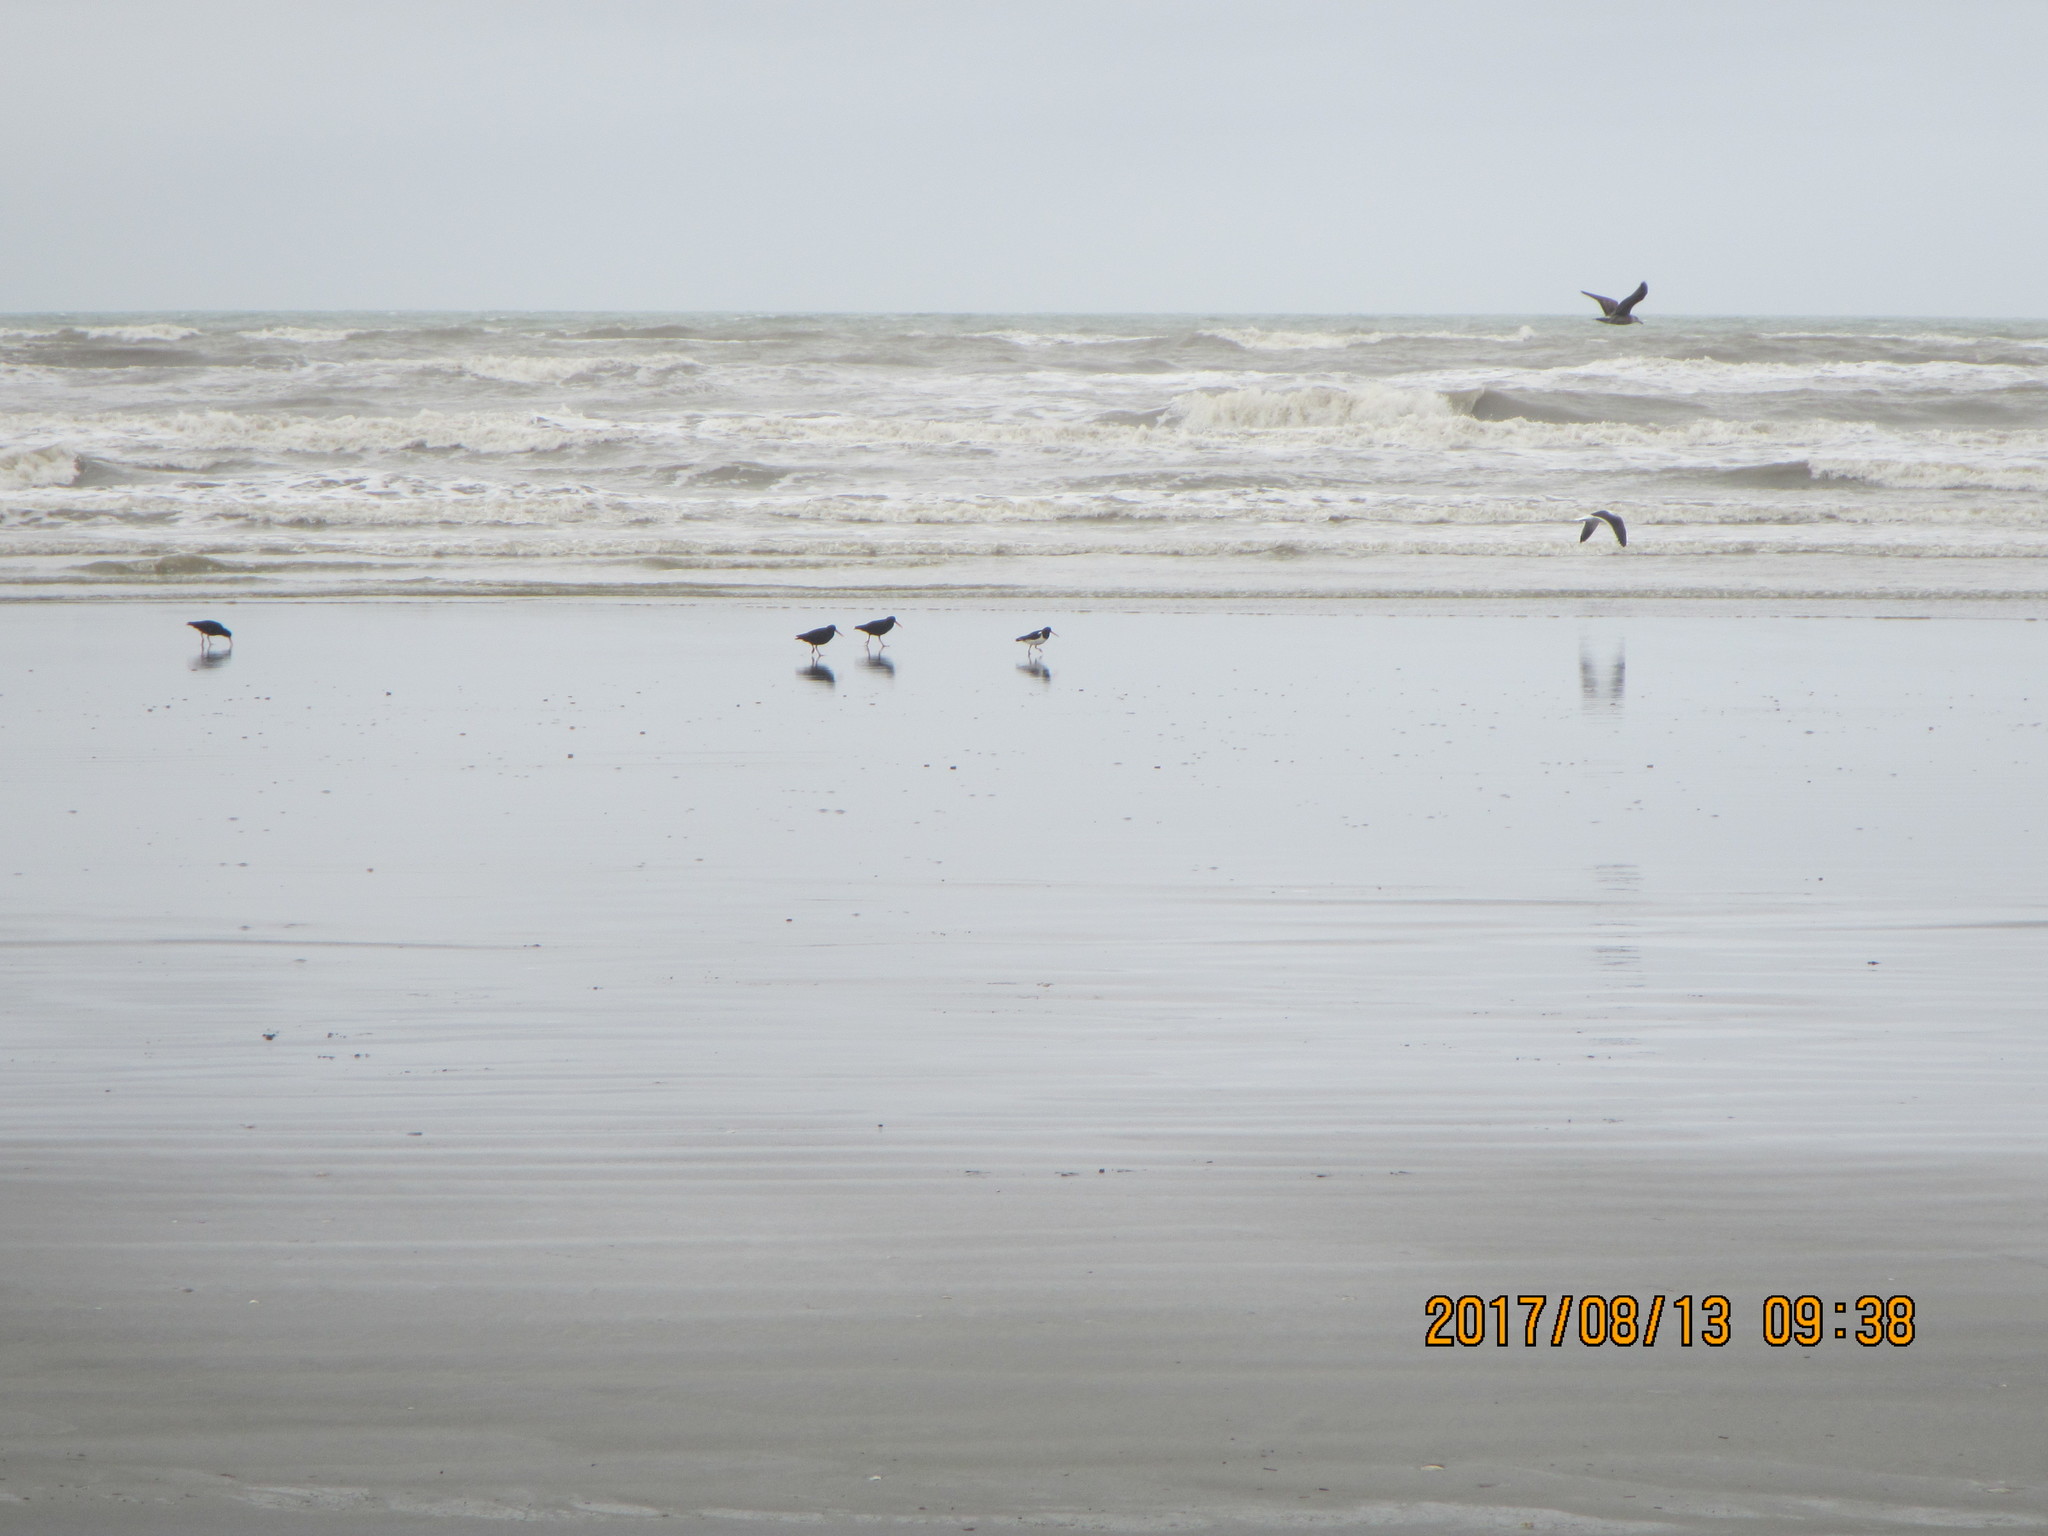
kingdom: Animalia
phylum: Chordata
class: Aves
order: Charadriiformes
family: Haematopodidae
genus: Haematopus
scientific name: Haematopus unicolor
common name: Variable oystercatcher
